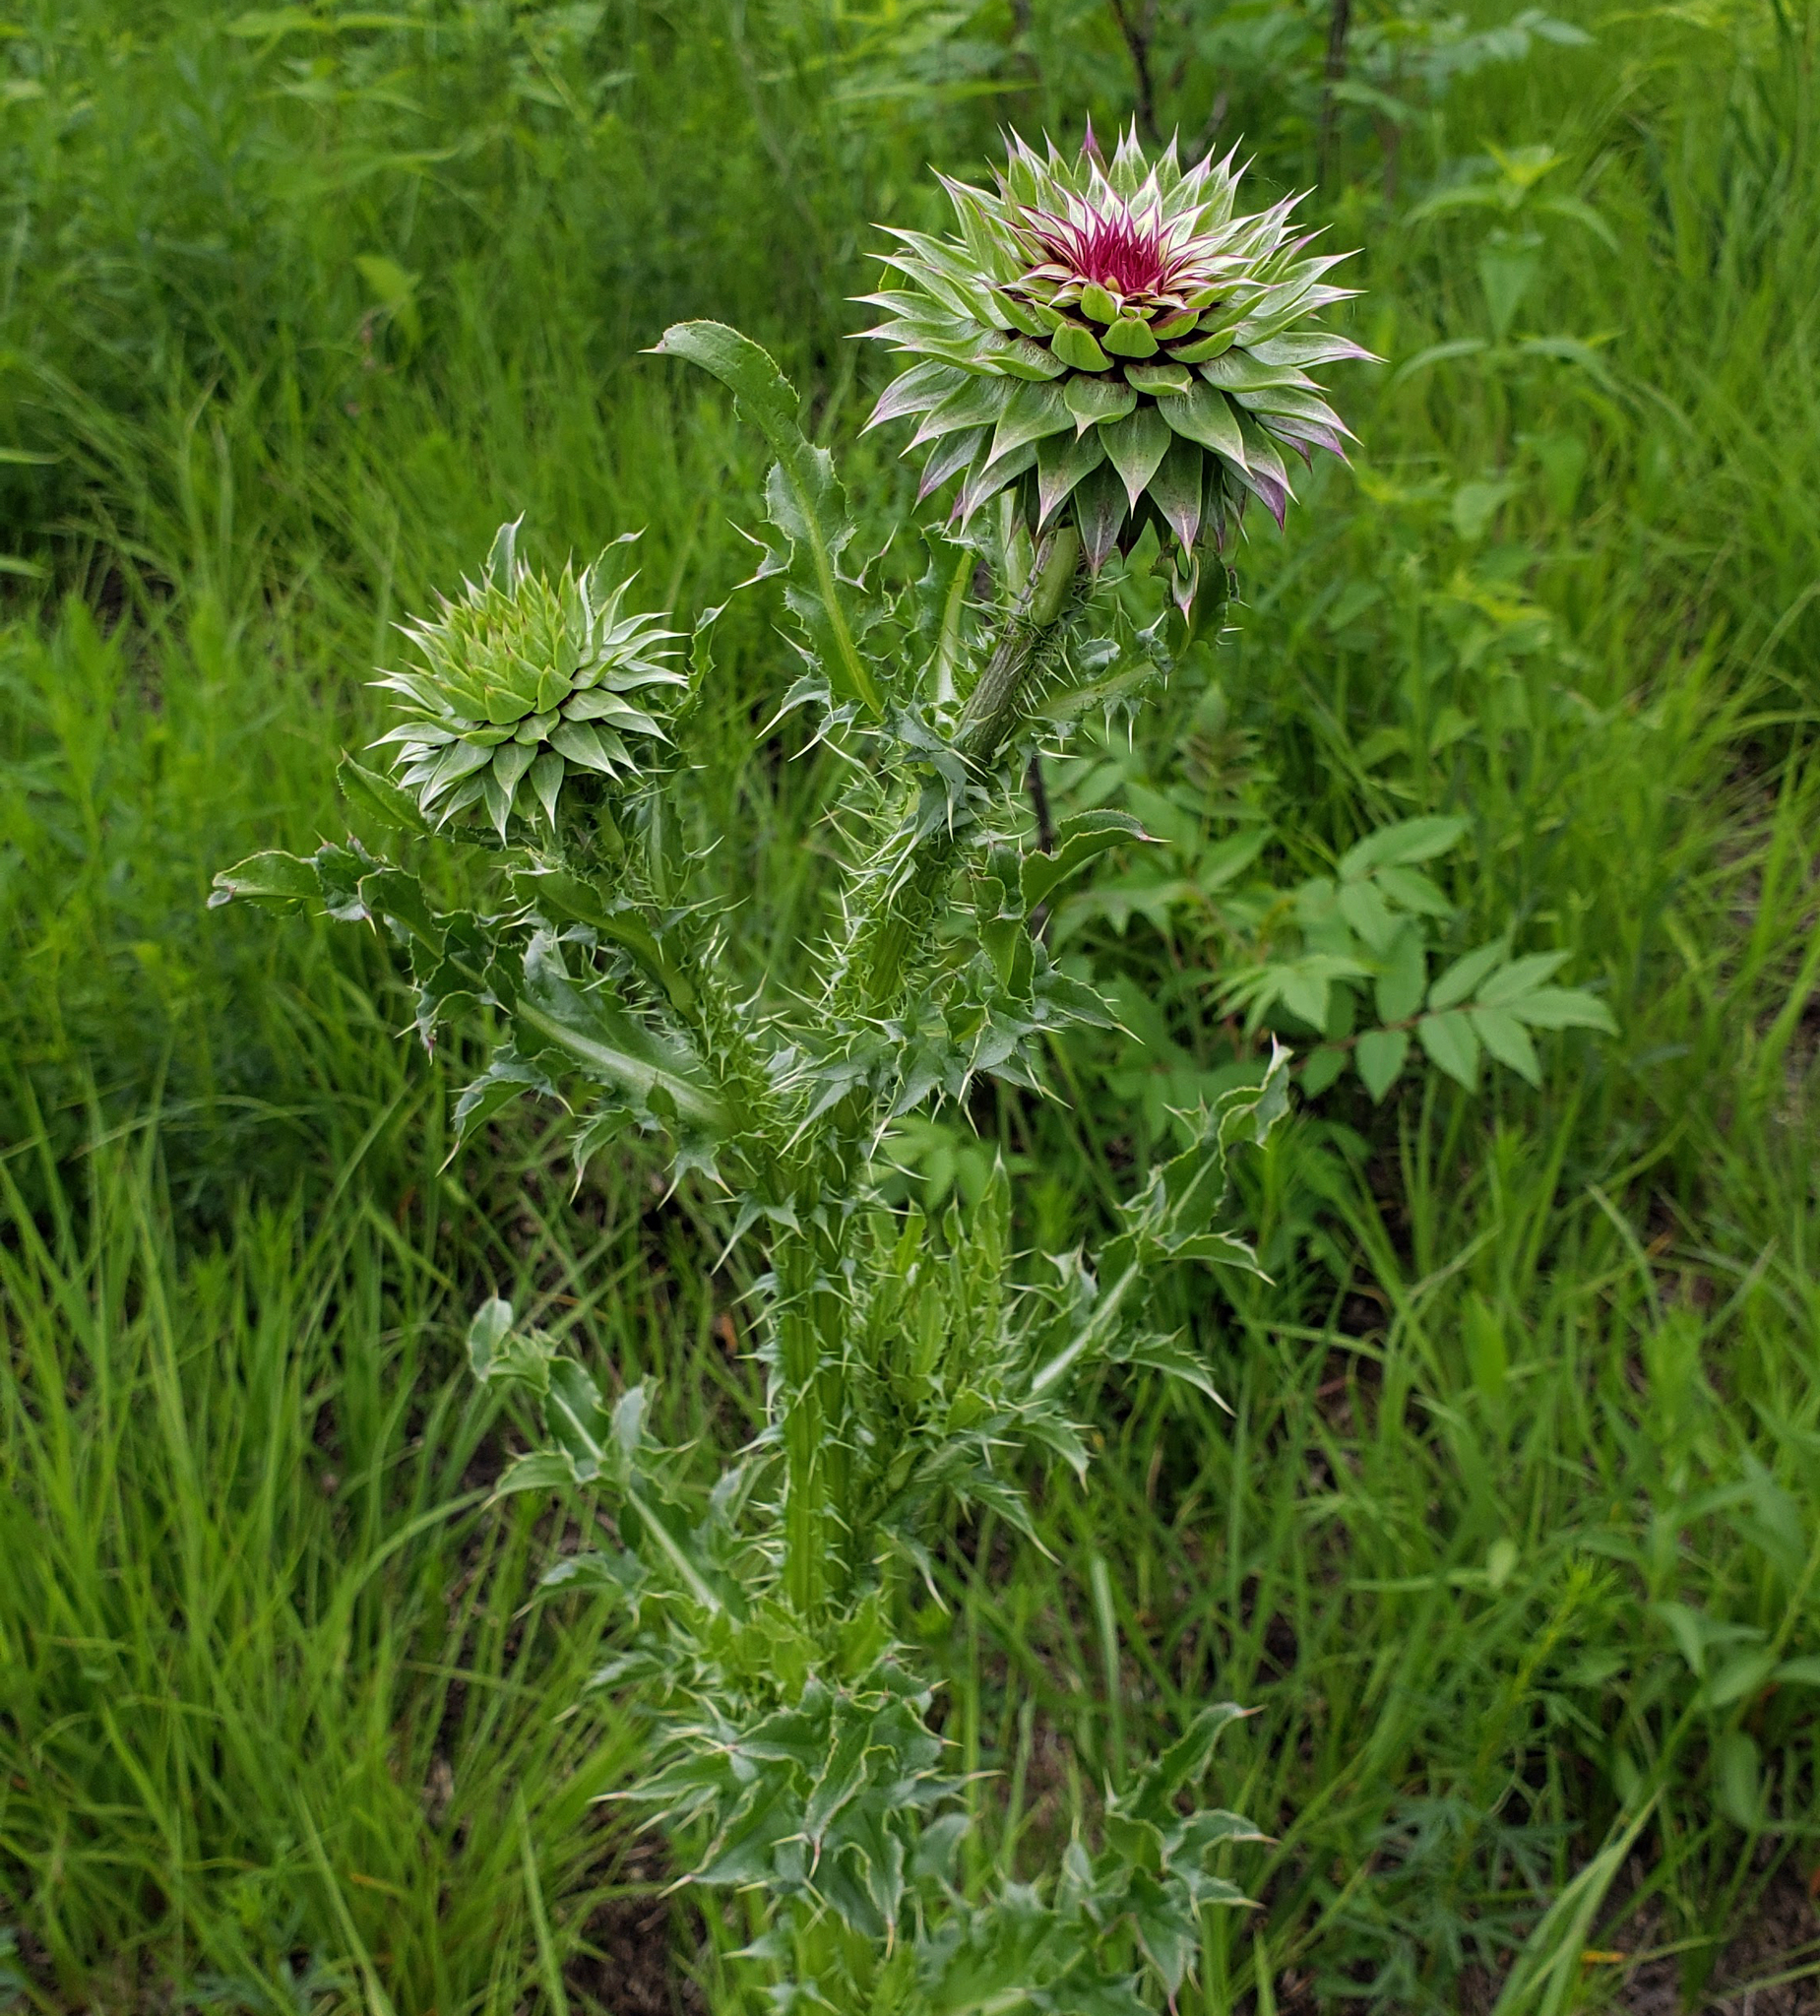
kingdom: Plantae
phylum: Tracheophyta
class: Magnoliopsida
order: Asterales
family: Asteraceae
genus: Carduus
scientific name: Carduus nutans
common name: Musk thistle
